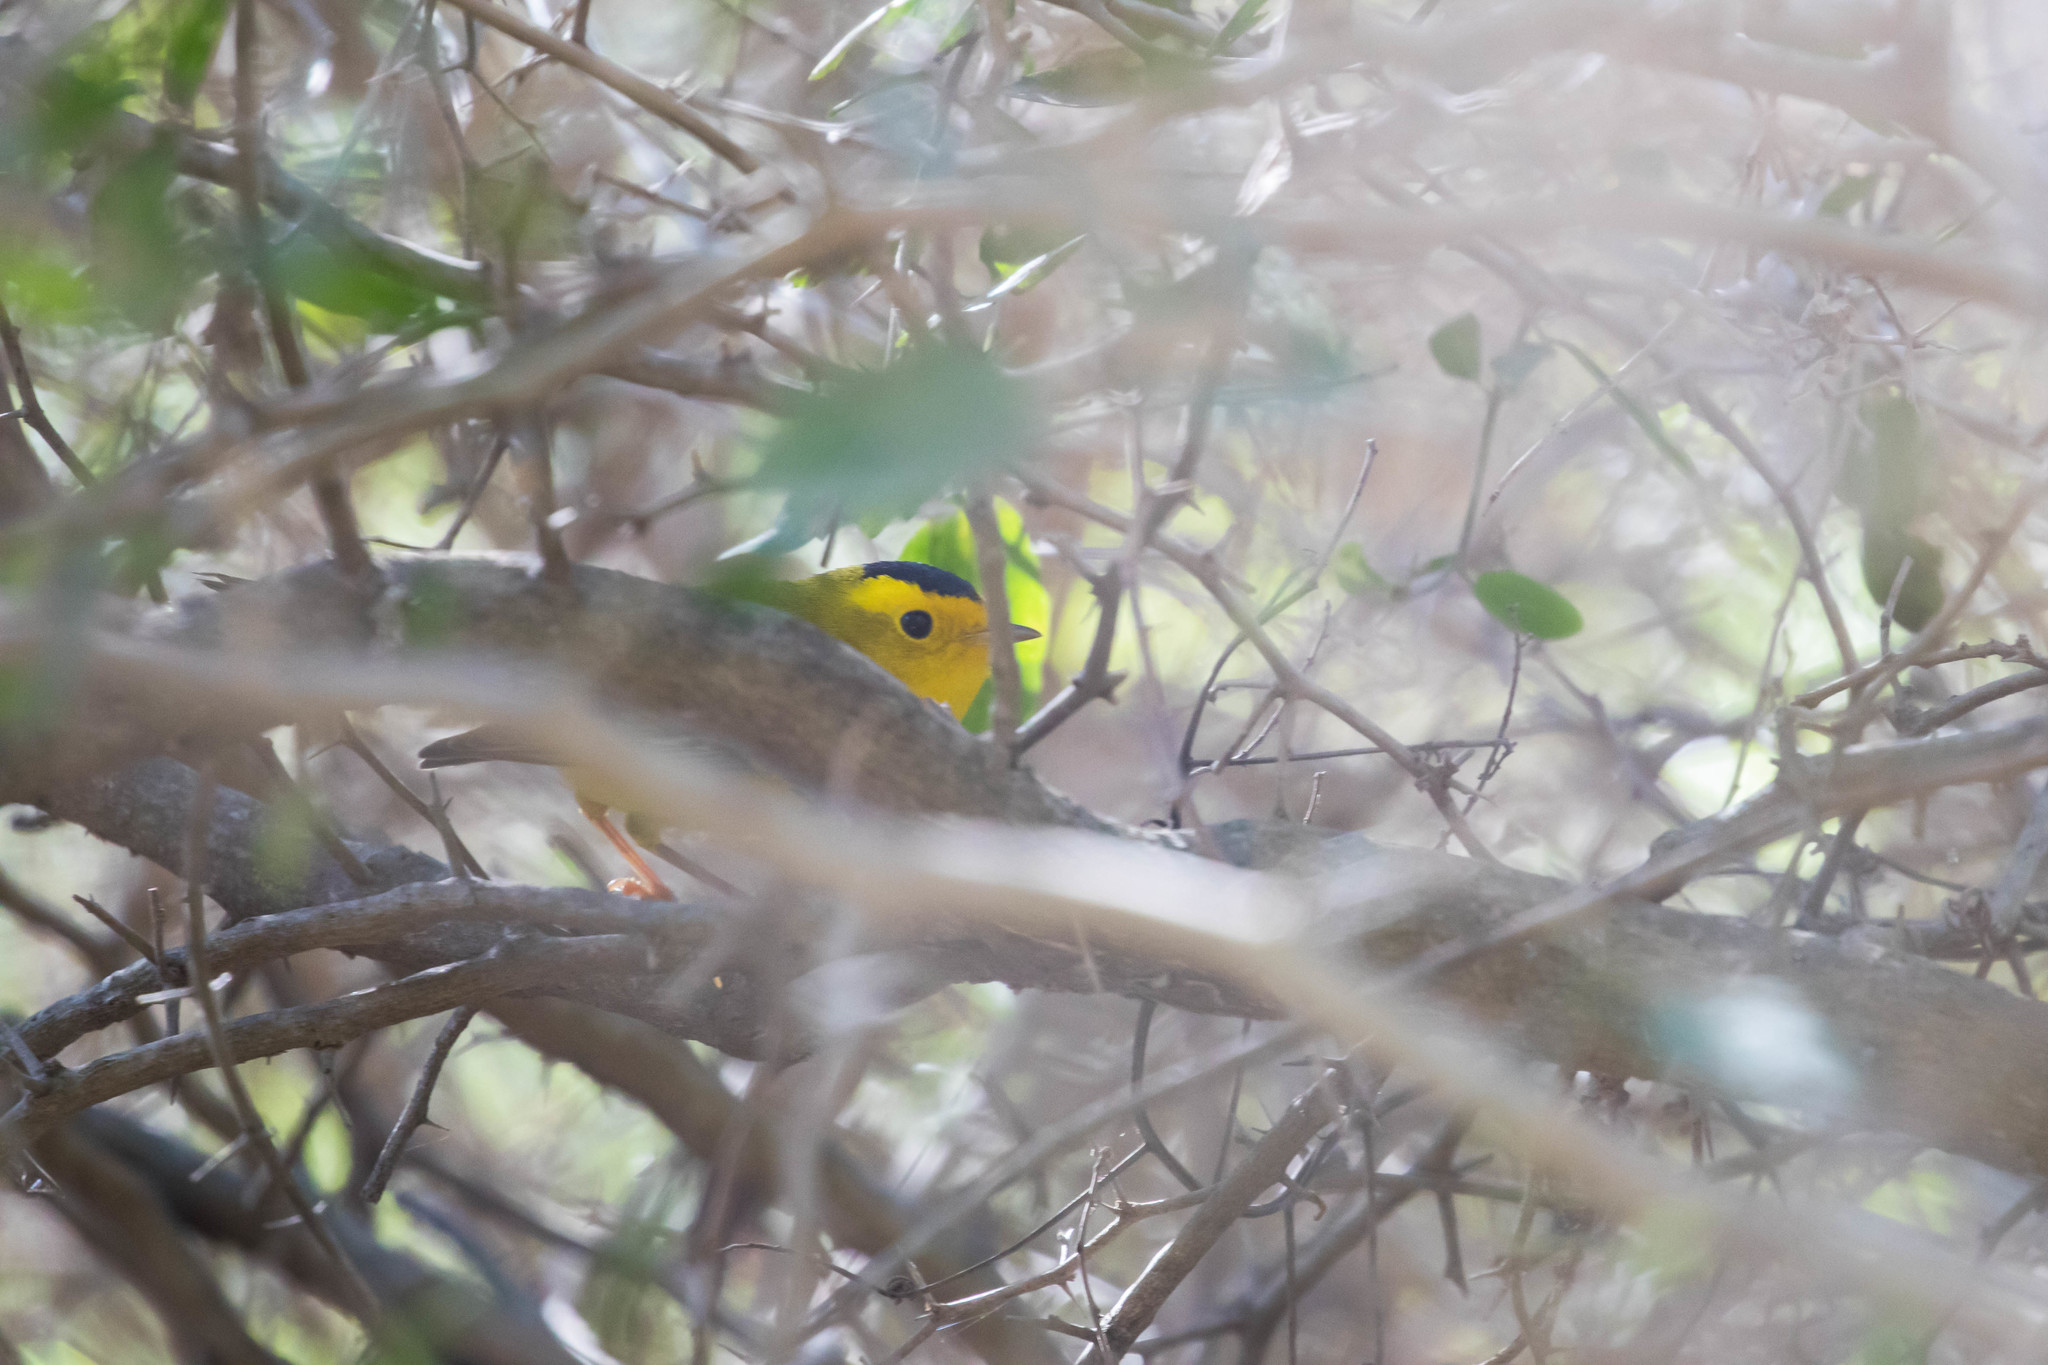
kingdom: Animalia
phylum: Chordata
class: Aves
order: Passeriformes
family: Parulidae
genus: Cardellina
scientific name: Cardellina pusilla
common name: Wilson's warbler
